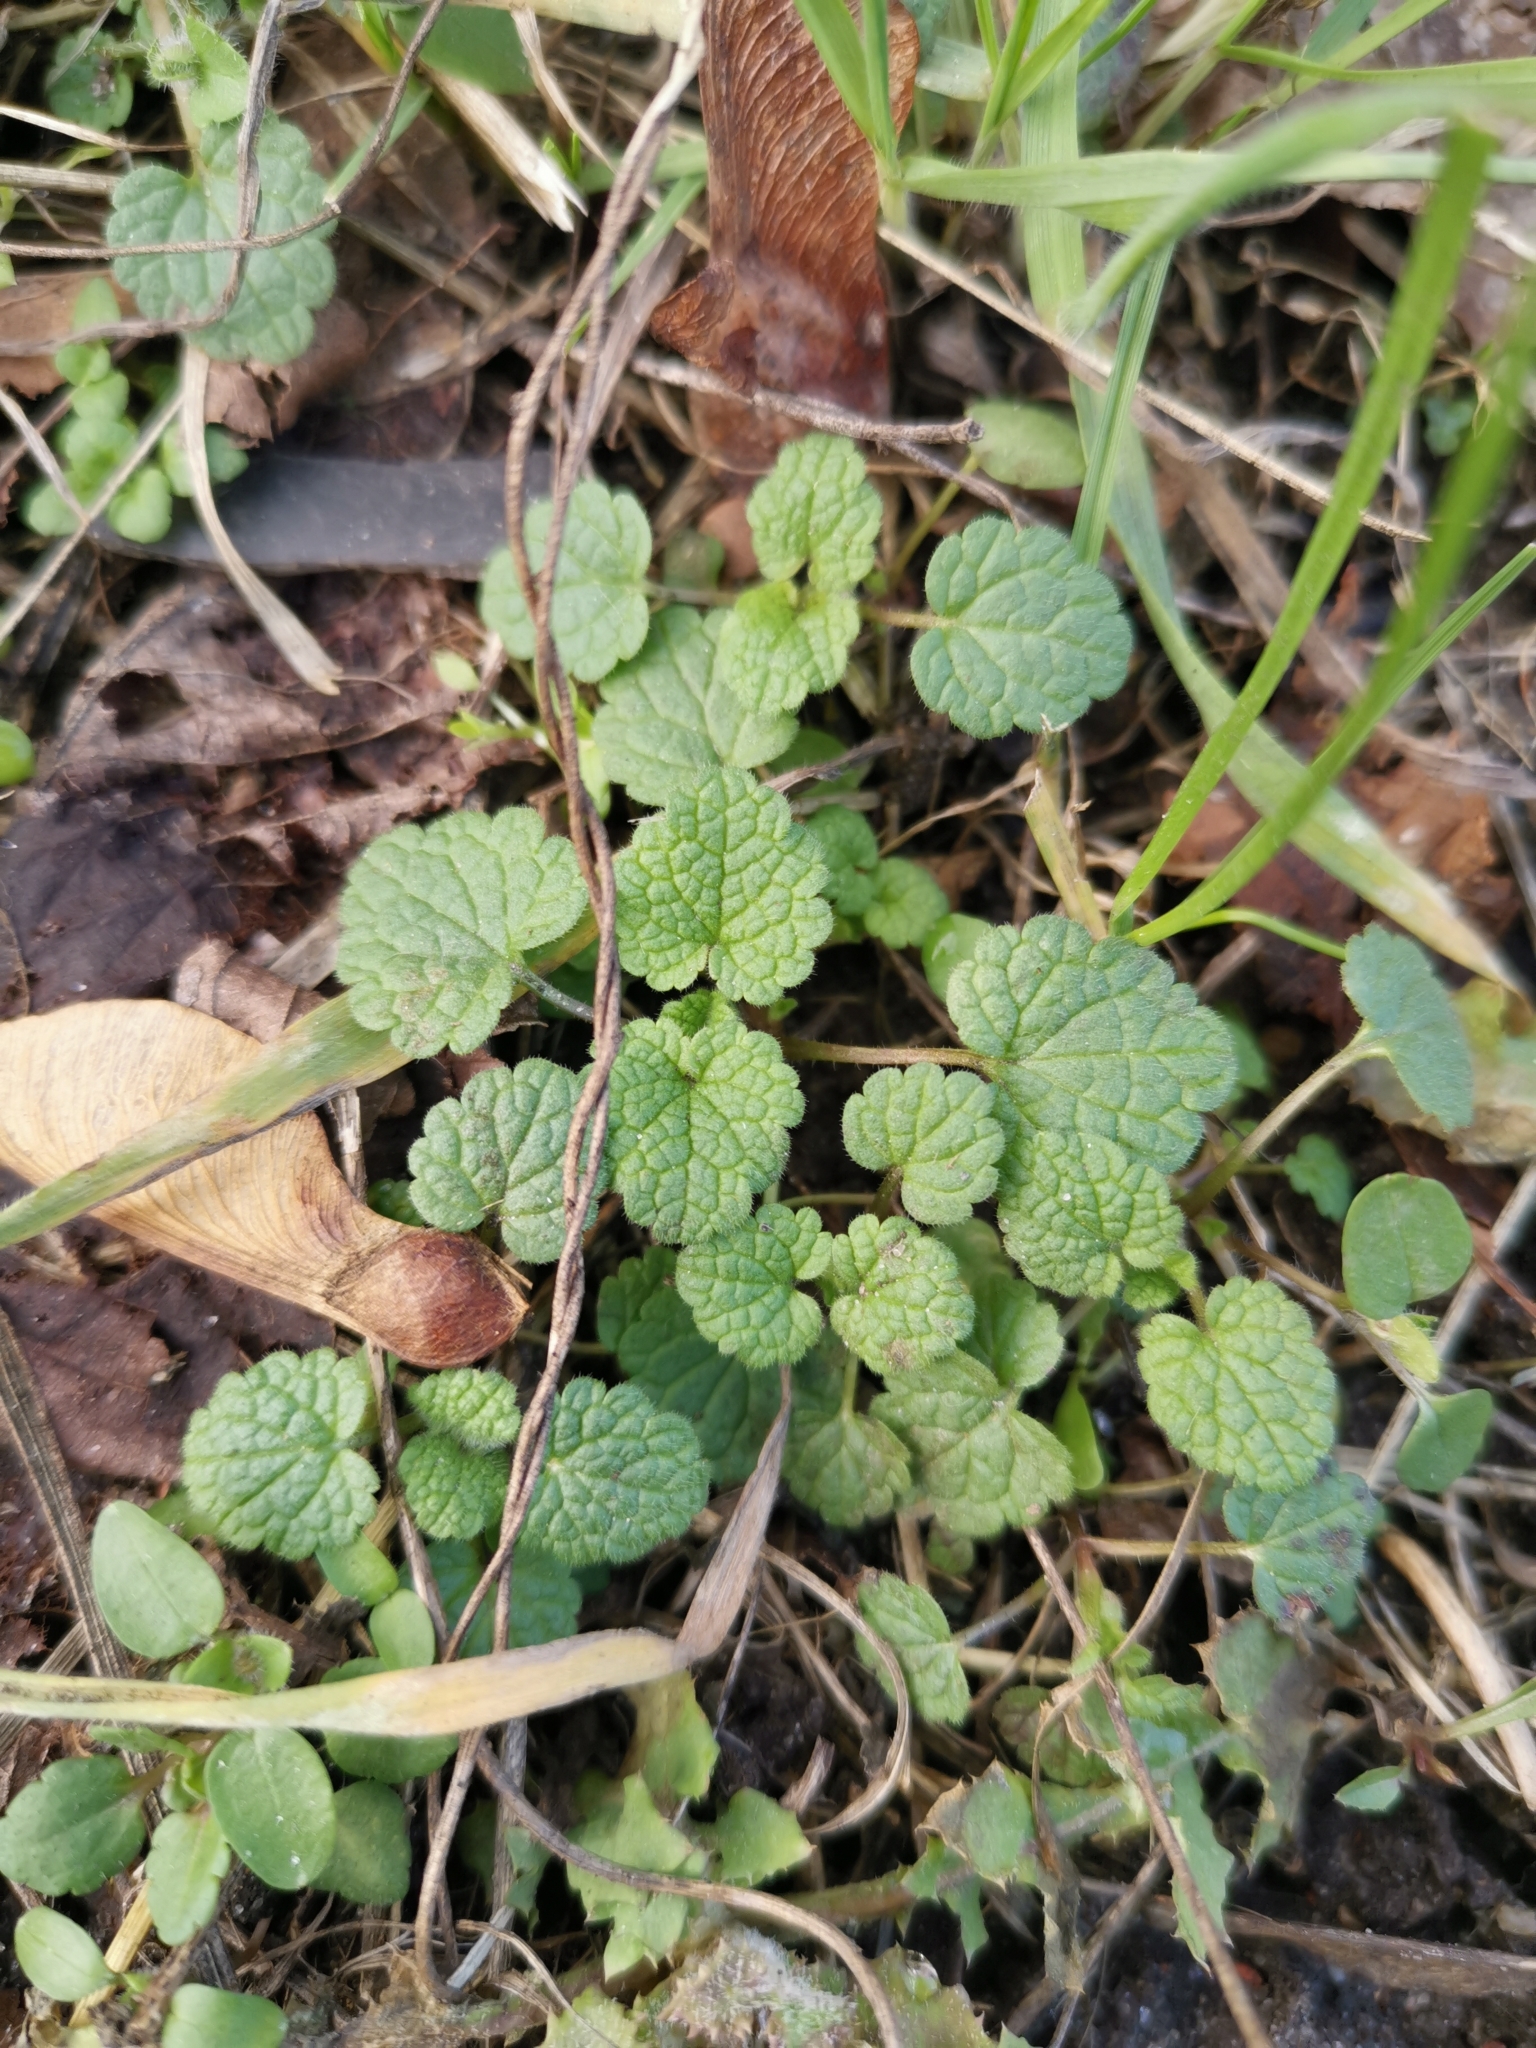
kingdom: Plantae
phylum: Tracheophyta
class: Magnoliopsida
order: Lamiales
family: Lamiaceae
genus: Lamium
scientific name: Lamium purpureum
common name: Red dead-nettle
